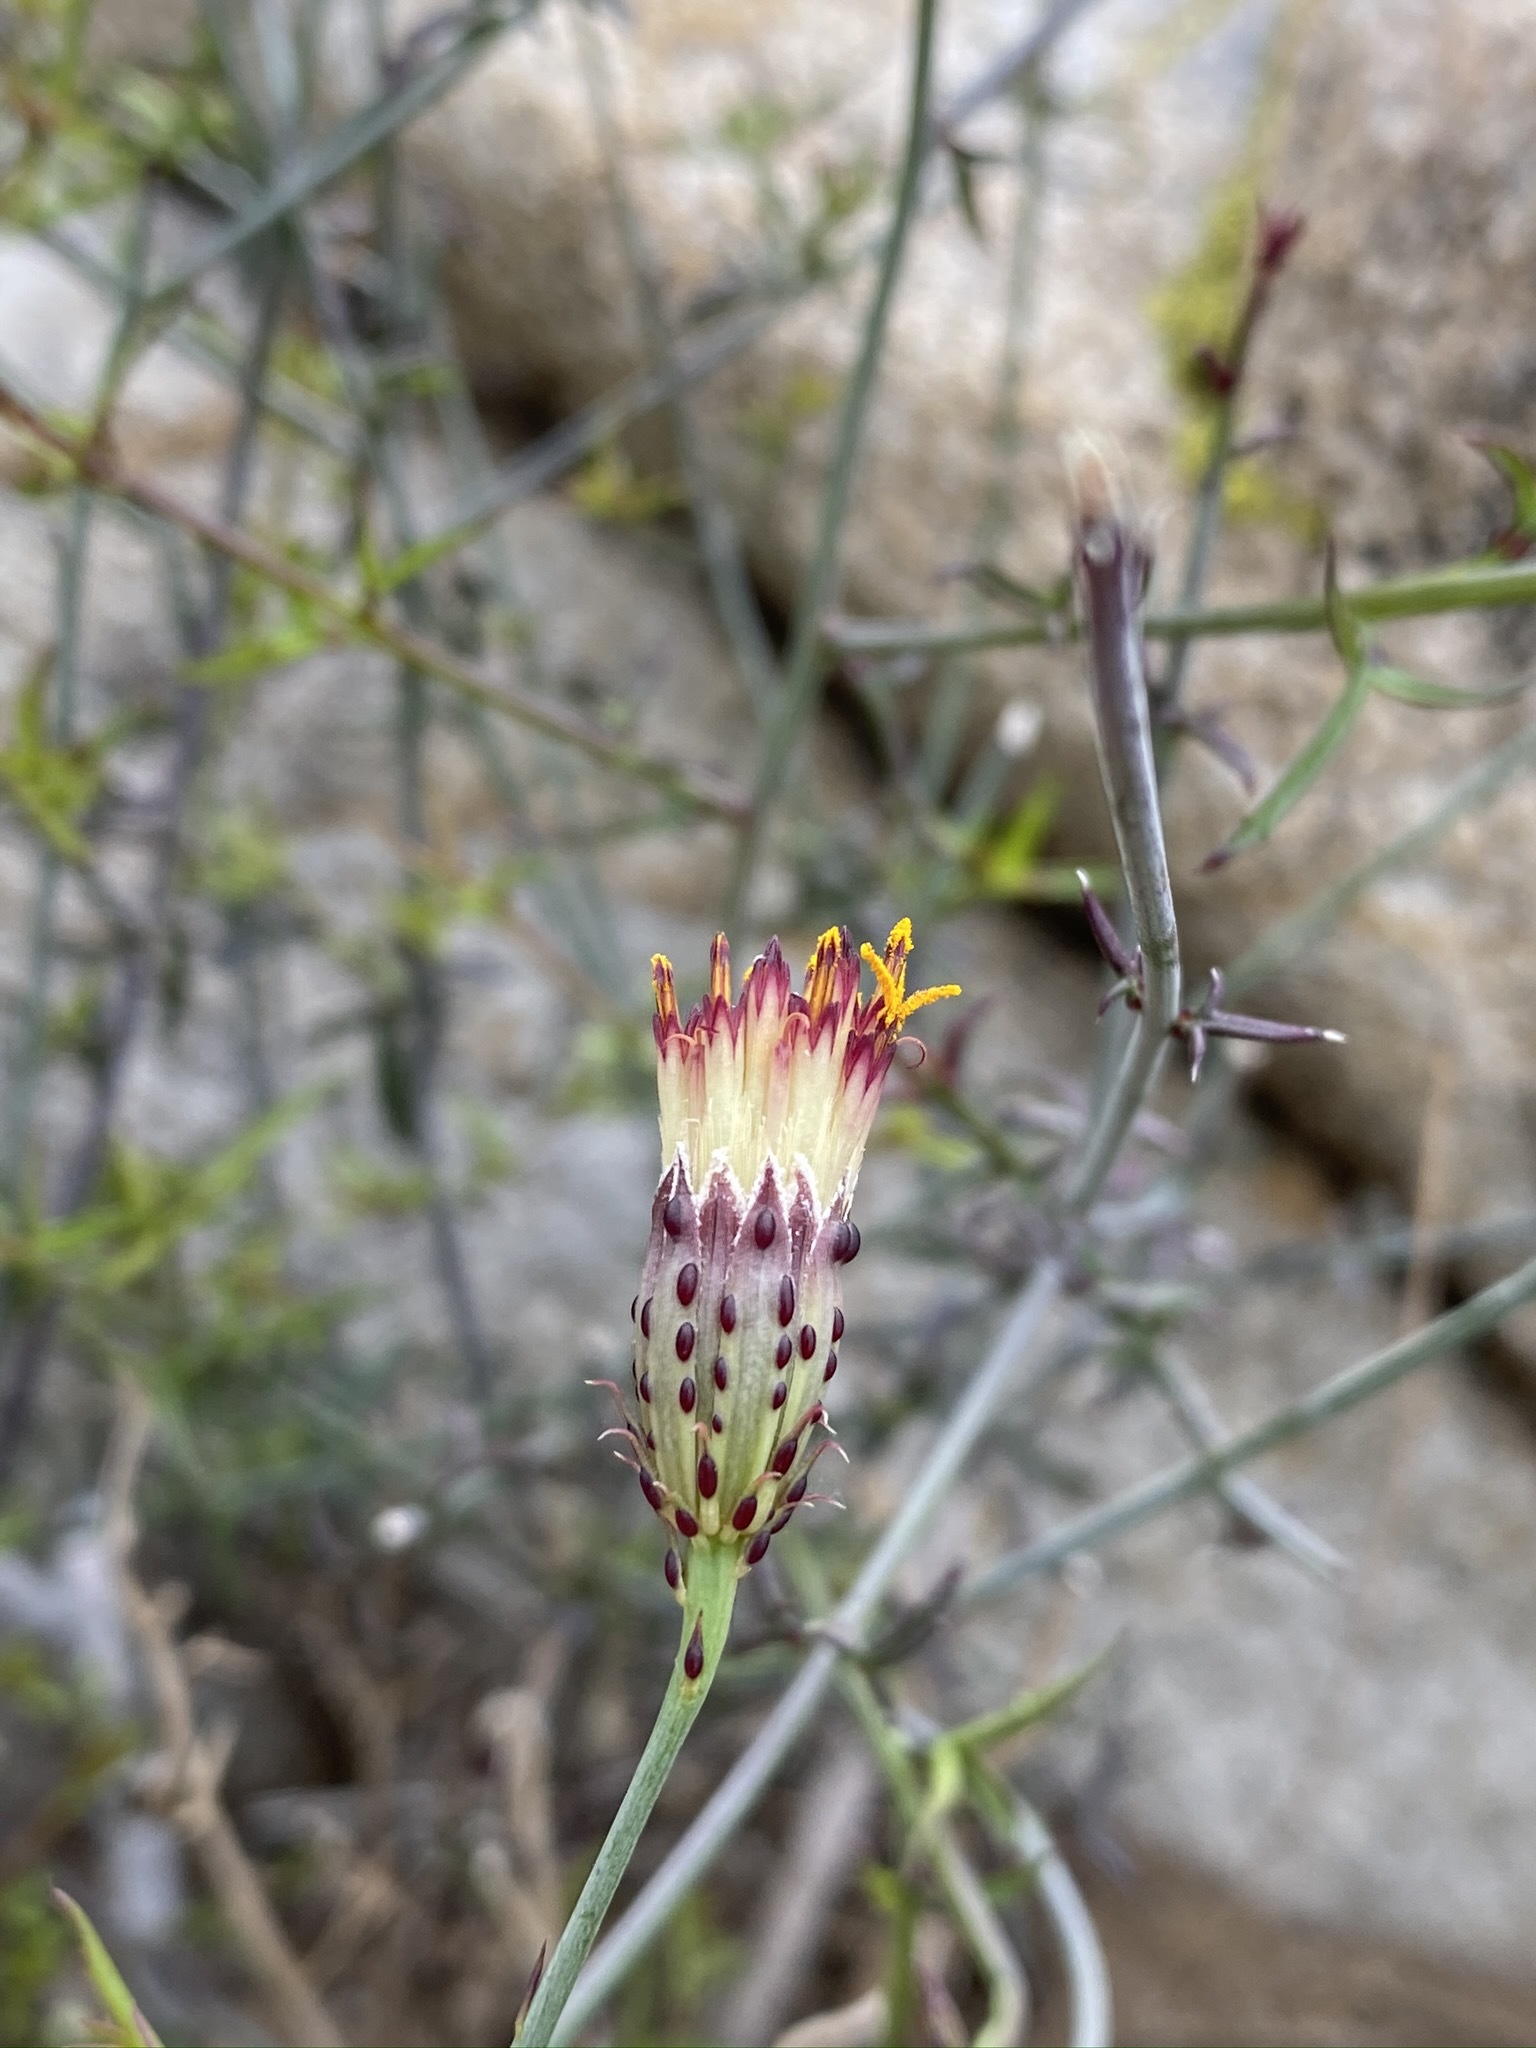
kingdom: Plantae
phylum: Tracheophyta
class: Magnoliopsida
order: Asterales
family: Asteraceae
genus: Adenophyllum
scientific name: Adenophyllum porophylloides
